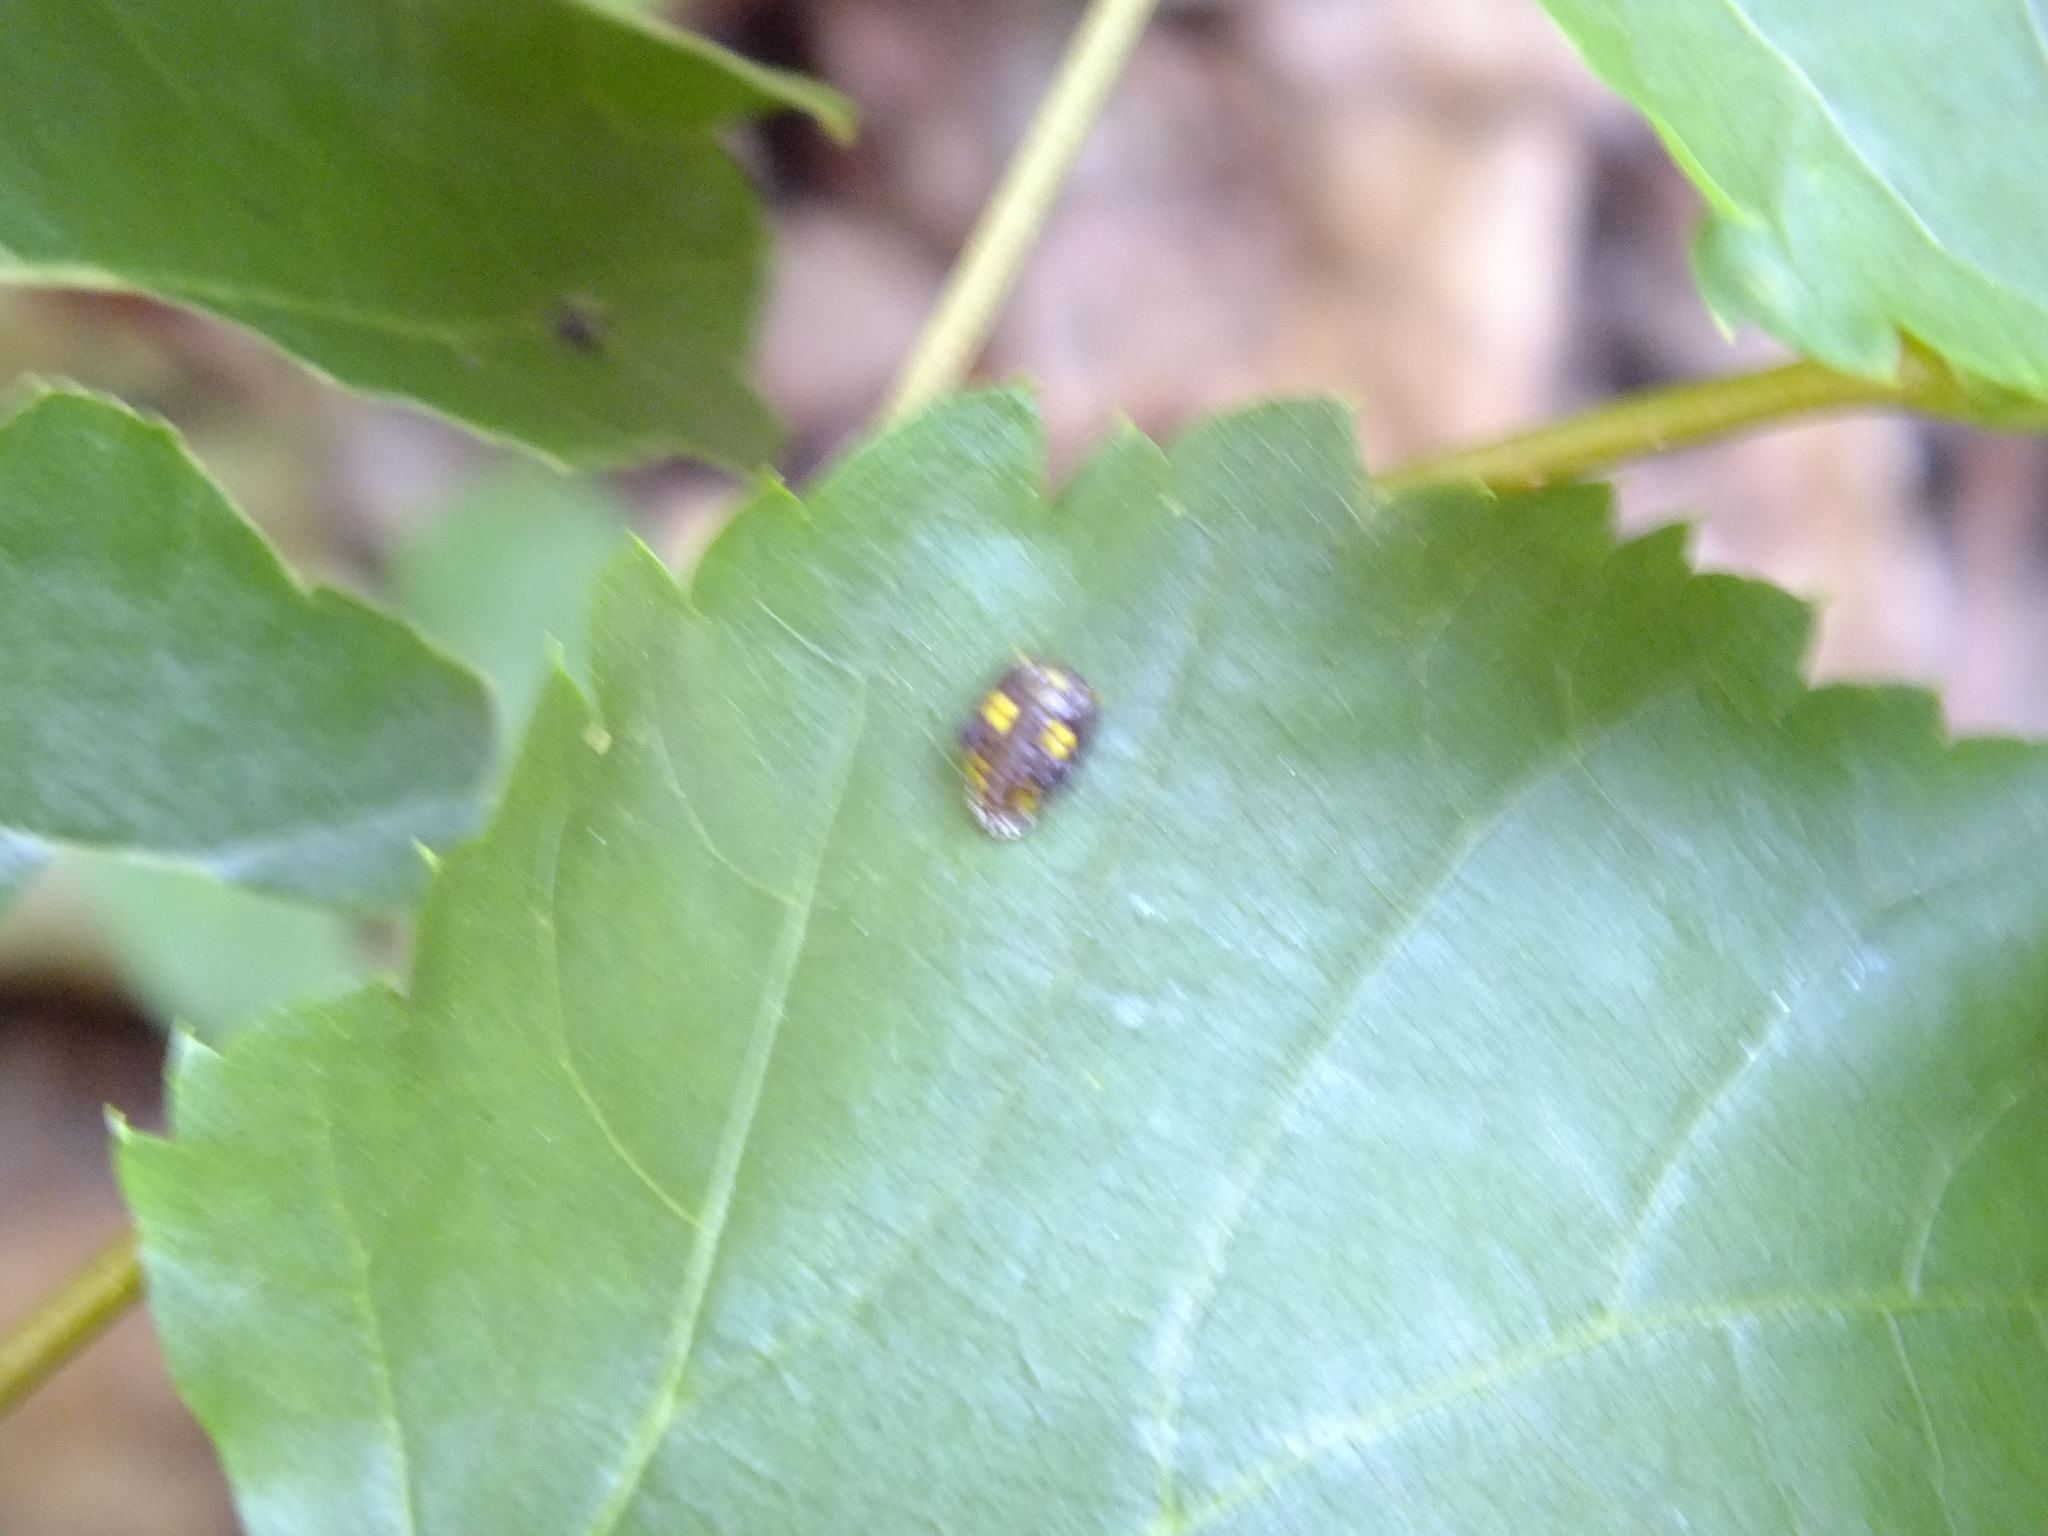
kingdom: Animalia
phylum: Arthropoda
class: Insecta
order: Coleoptera
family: Coccinellidae
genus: Halyzia
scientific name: Halyzia sedecimguttata
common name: Orange ladybird
